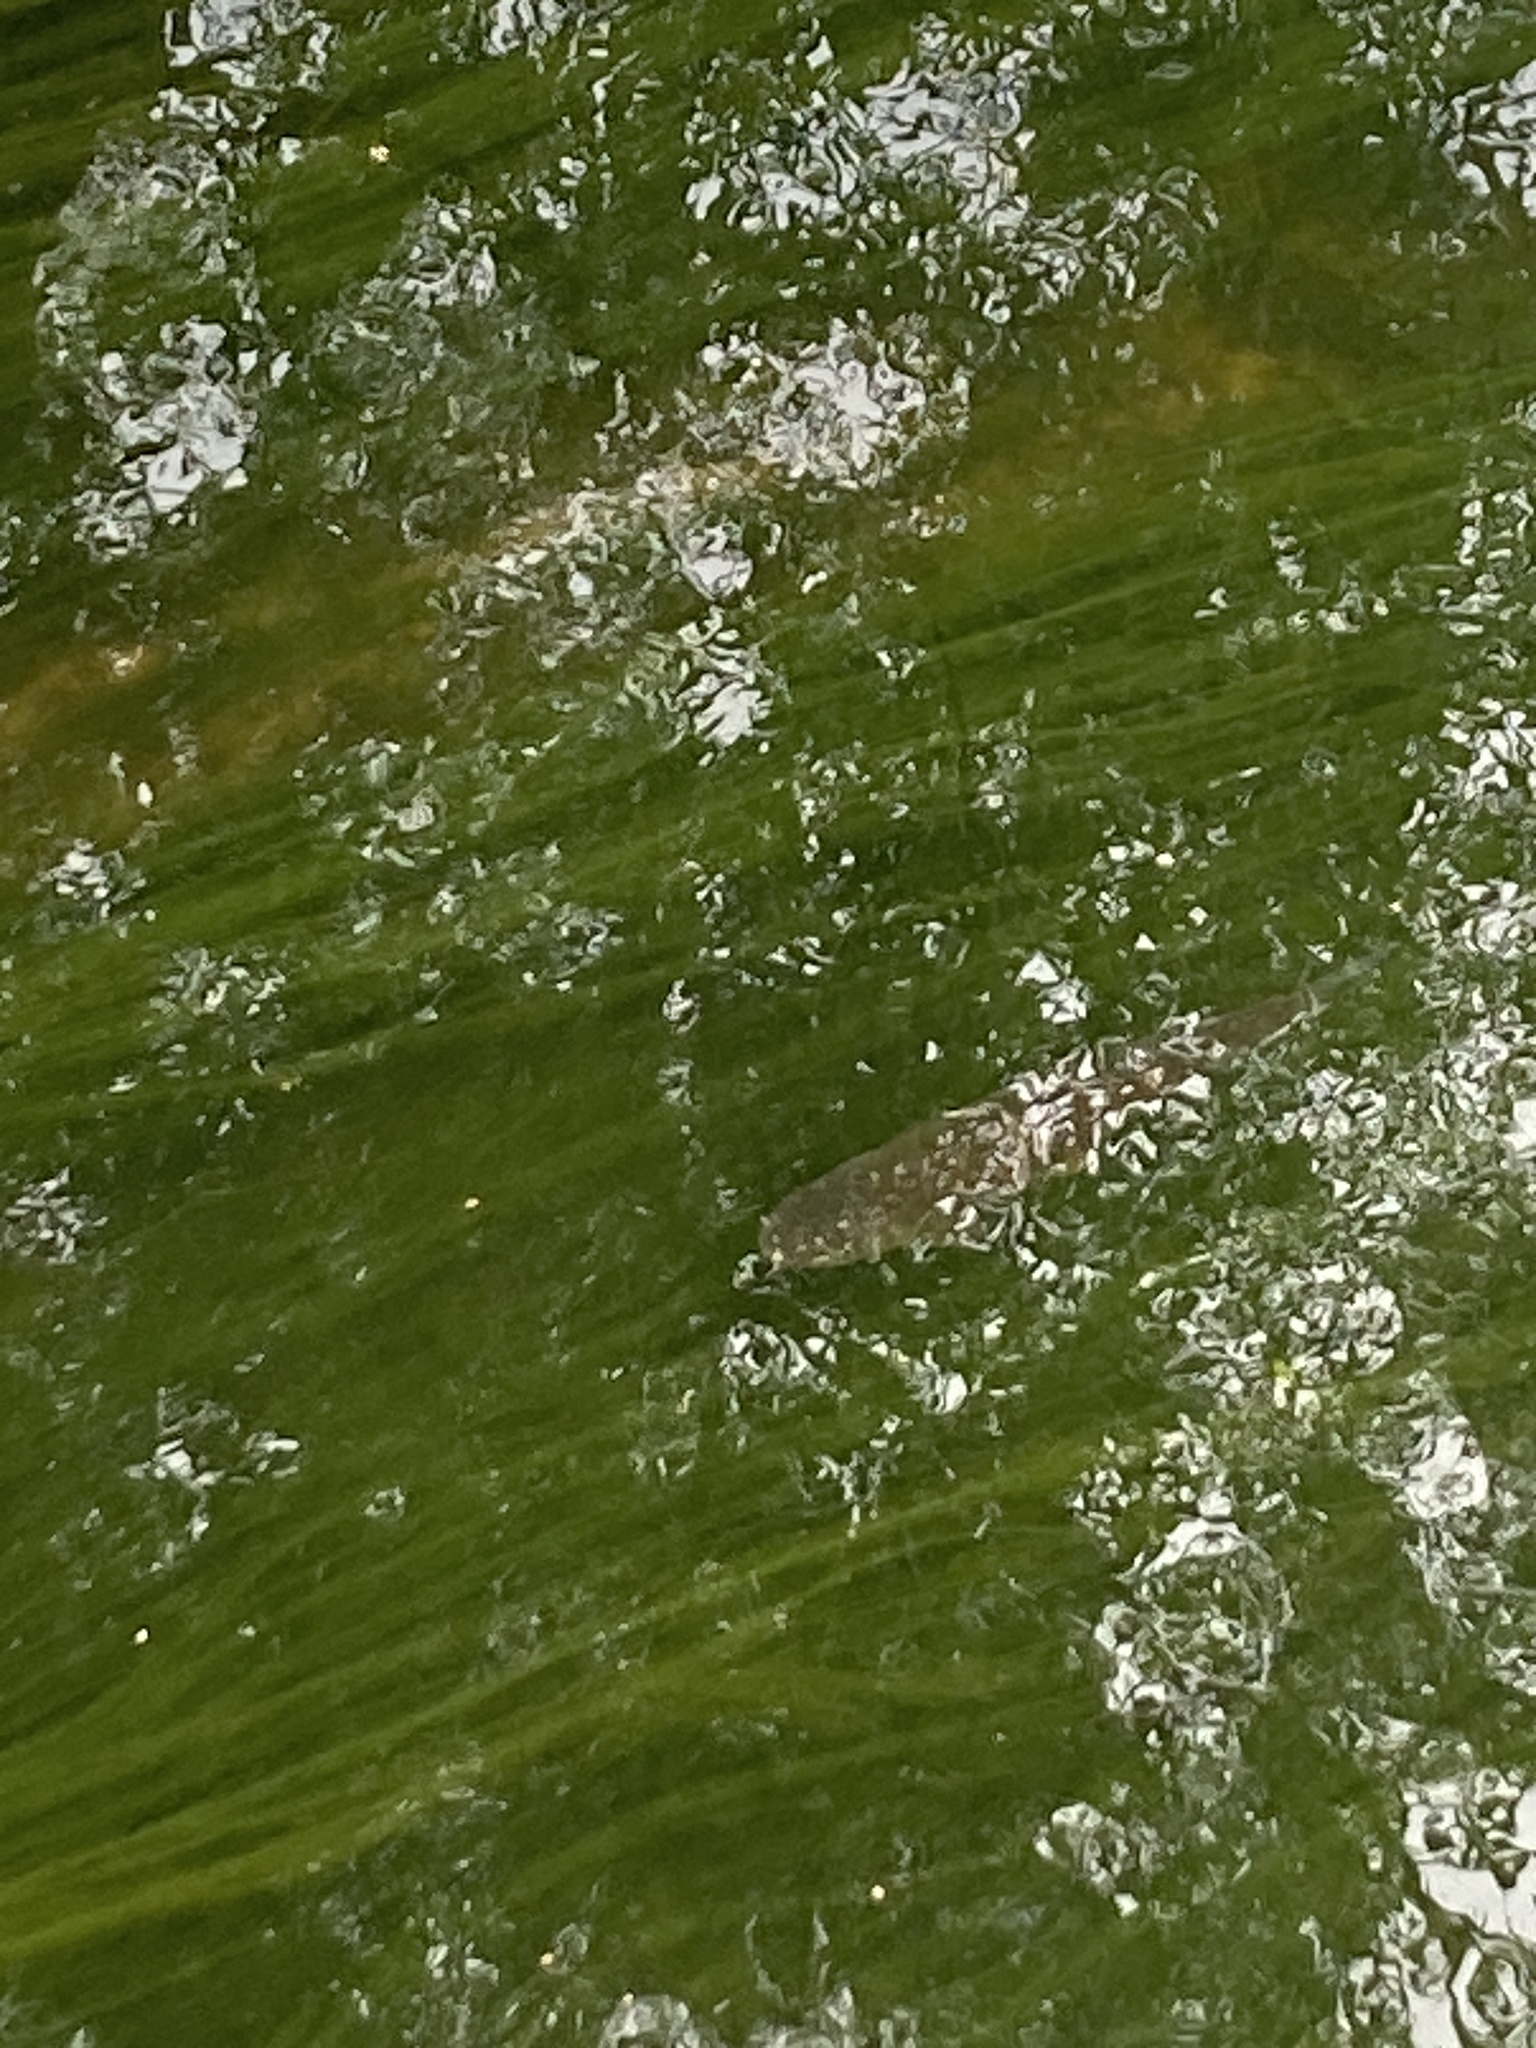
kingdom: Animalia
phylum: Chordata
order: Cypriniformes
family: Cyprinidae
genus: Squalius
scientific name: Squalius cephalus
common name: Chub
